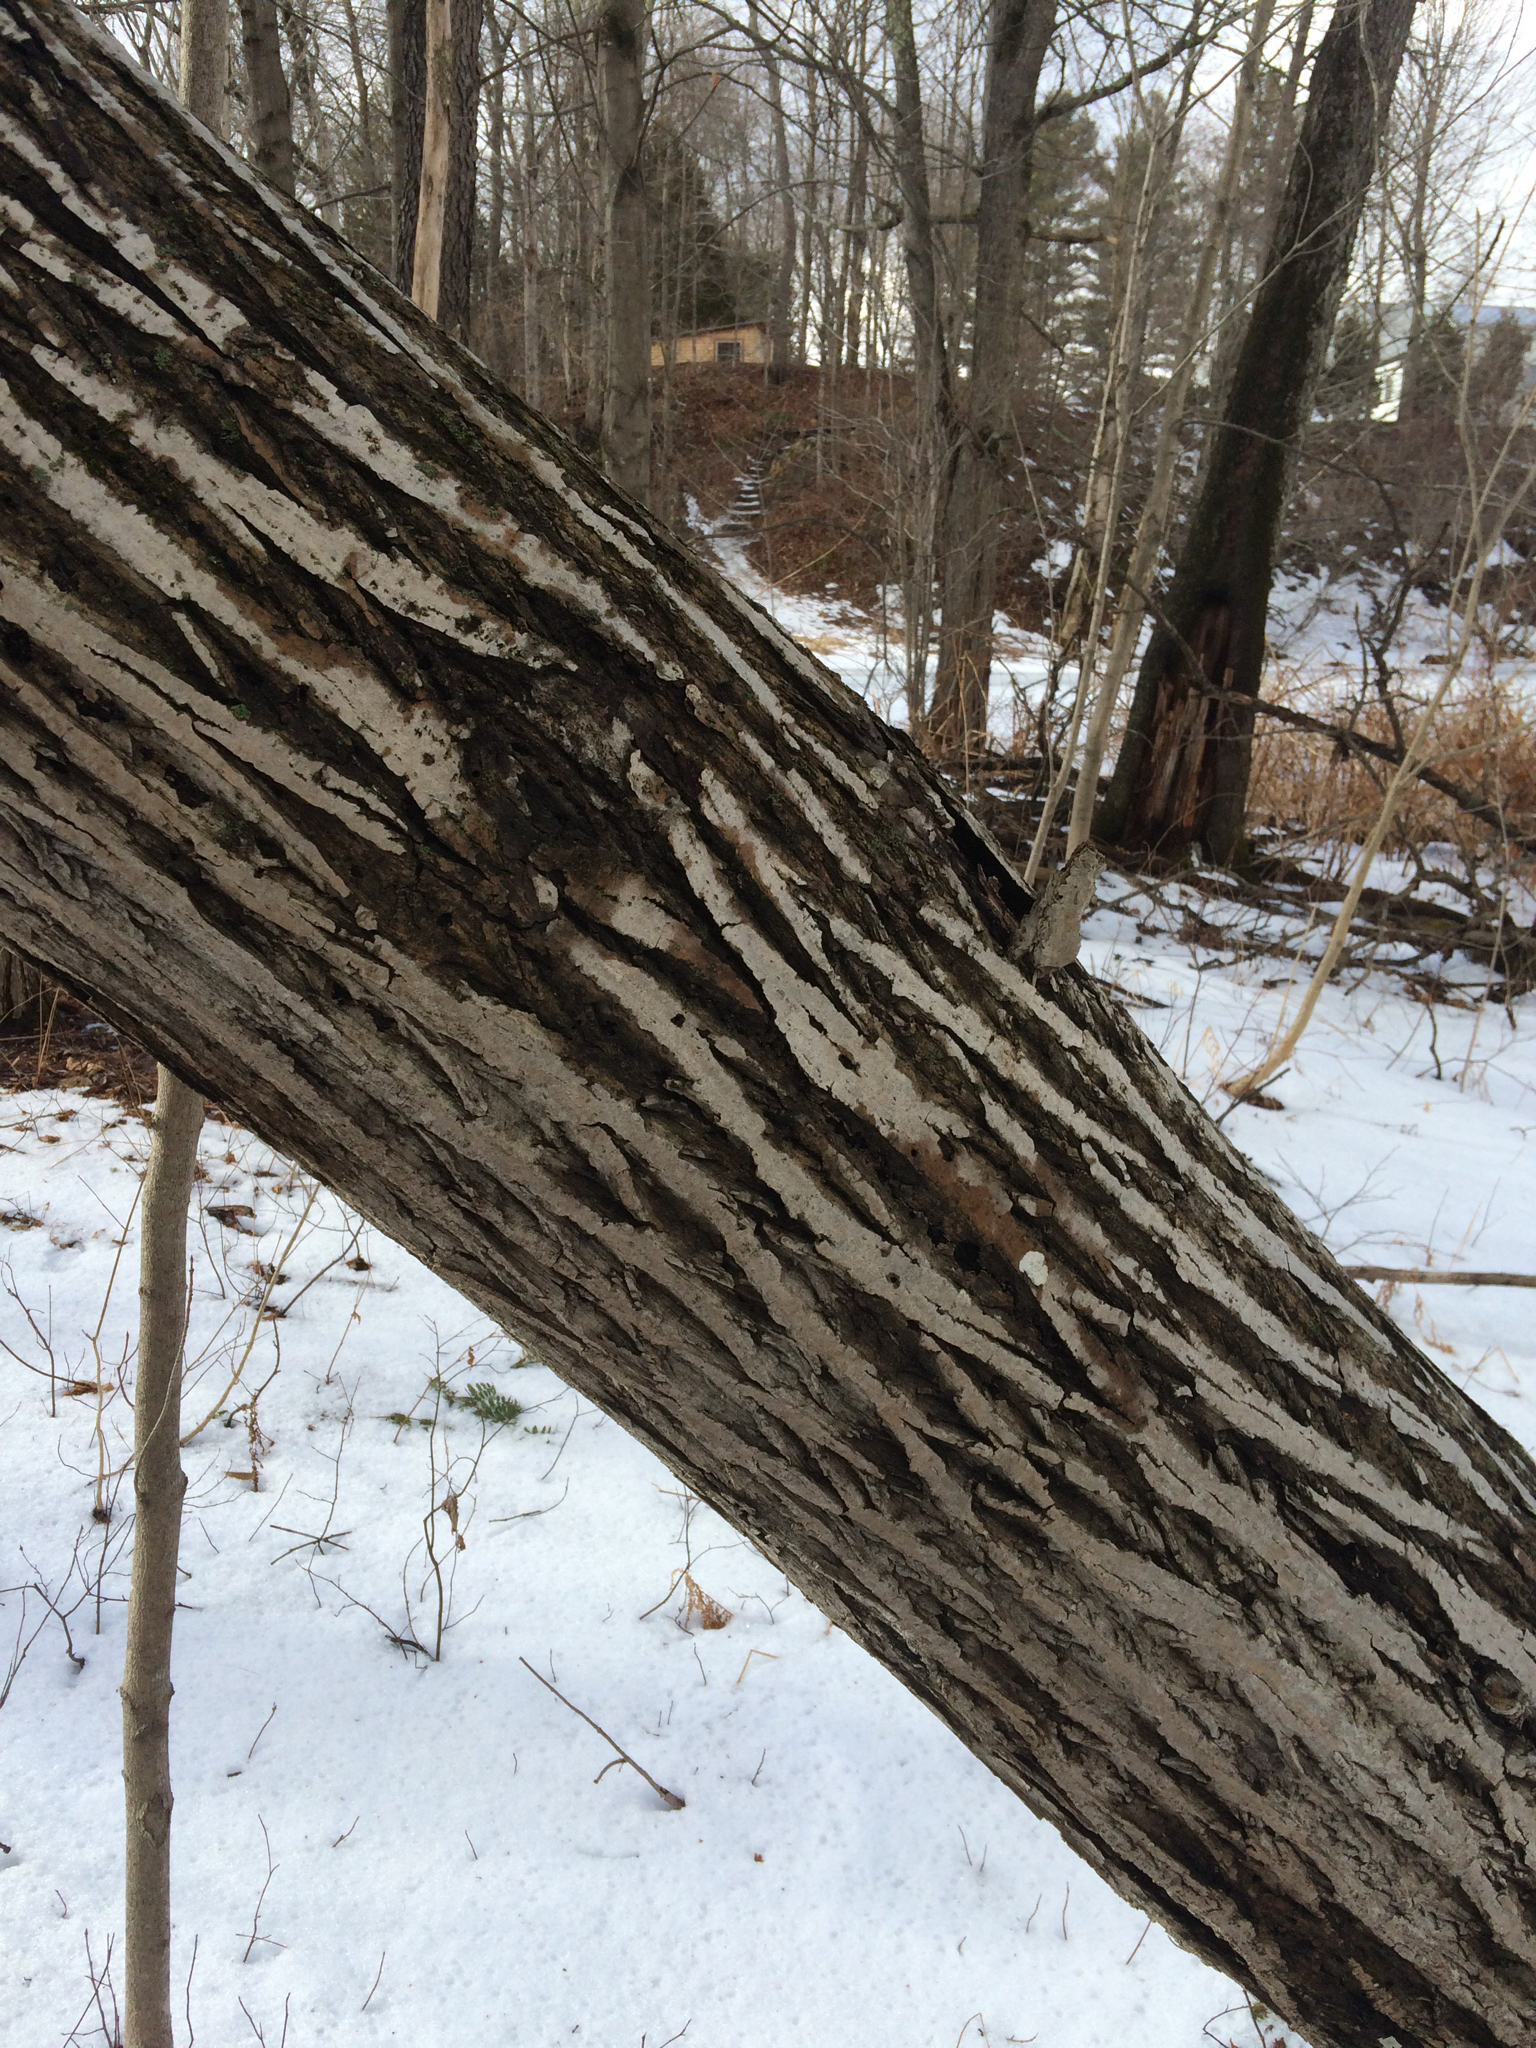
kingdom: Plantae
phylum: Tracheophyta
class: Magnoliopsida
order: Fagales
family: Juglandaceae
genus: Juglans
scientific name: Juglans cinerea
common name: Butternut
